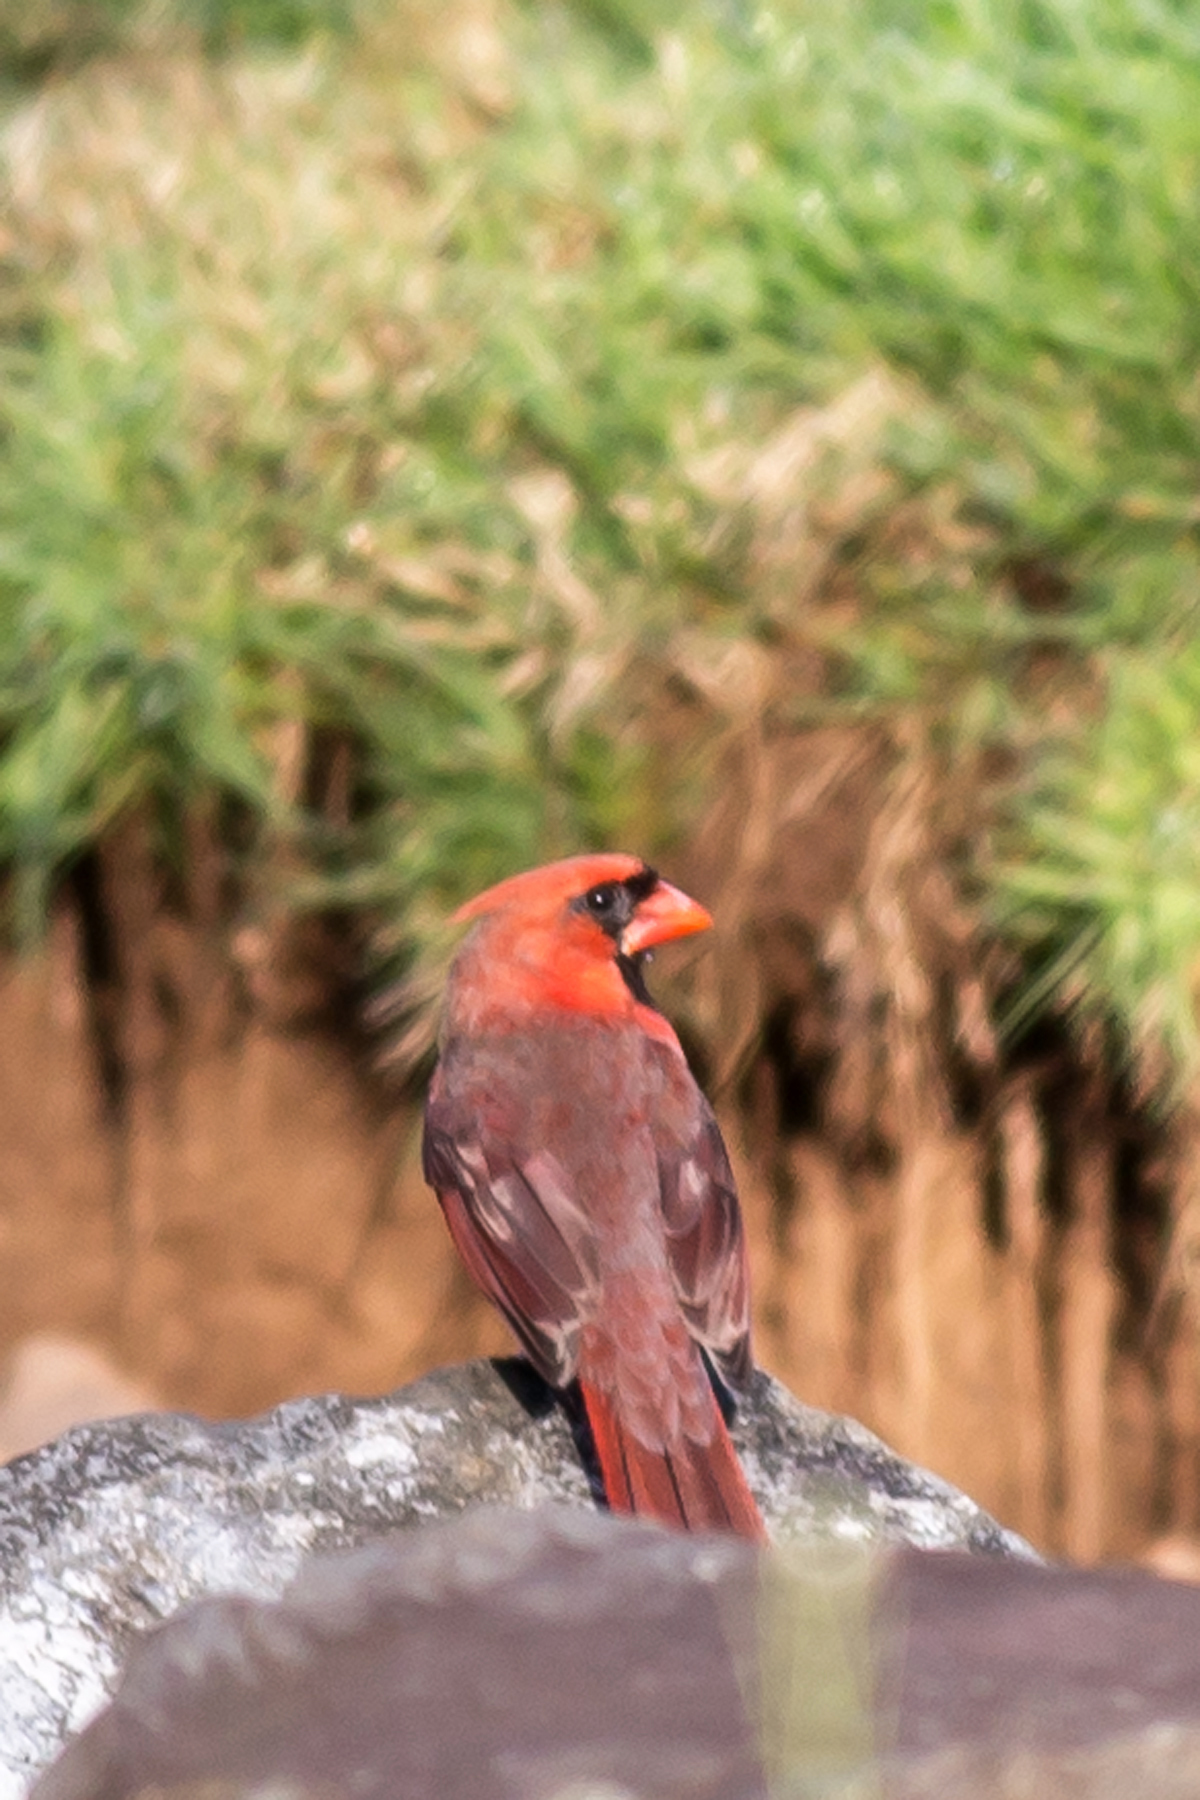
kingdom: Animalia
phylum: Chordata
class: Aves
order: Passeriformes
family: Cardinalidae
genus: Cardinalis
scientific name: Cardinalis cardinalis
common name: Northern cardinal
